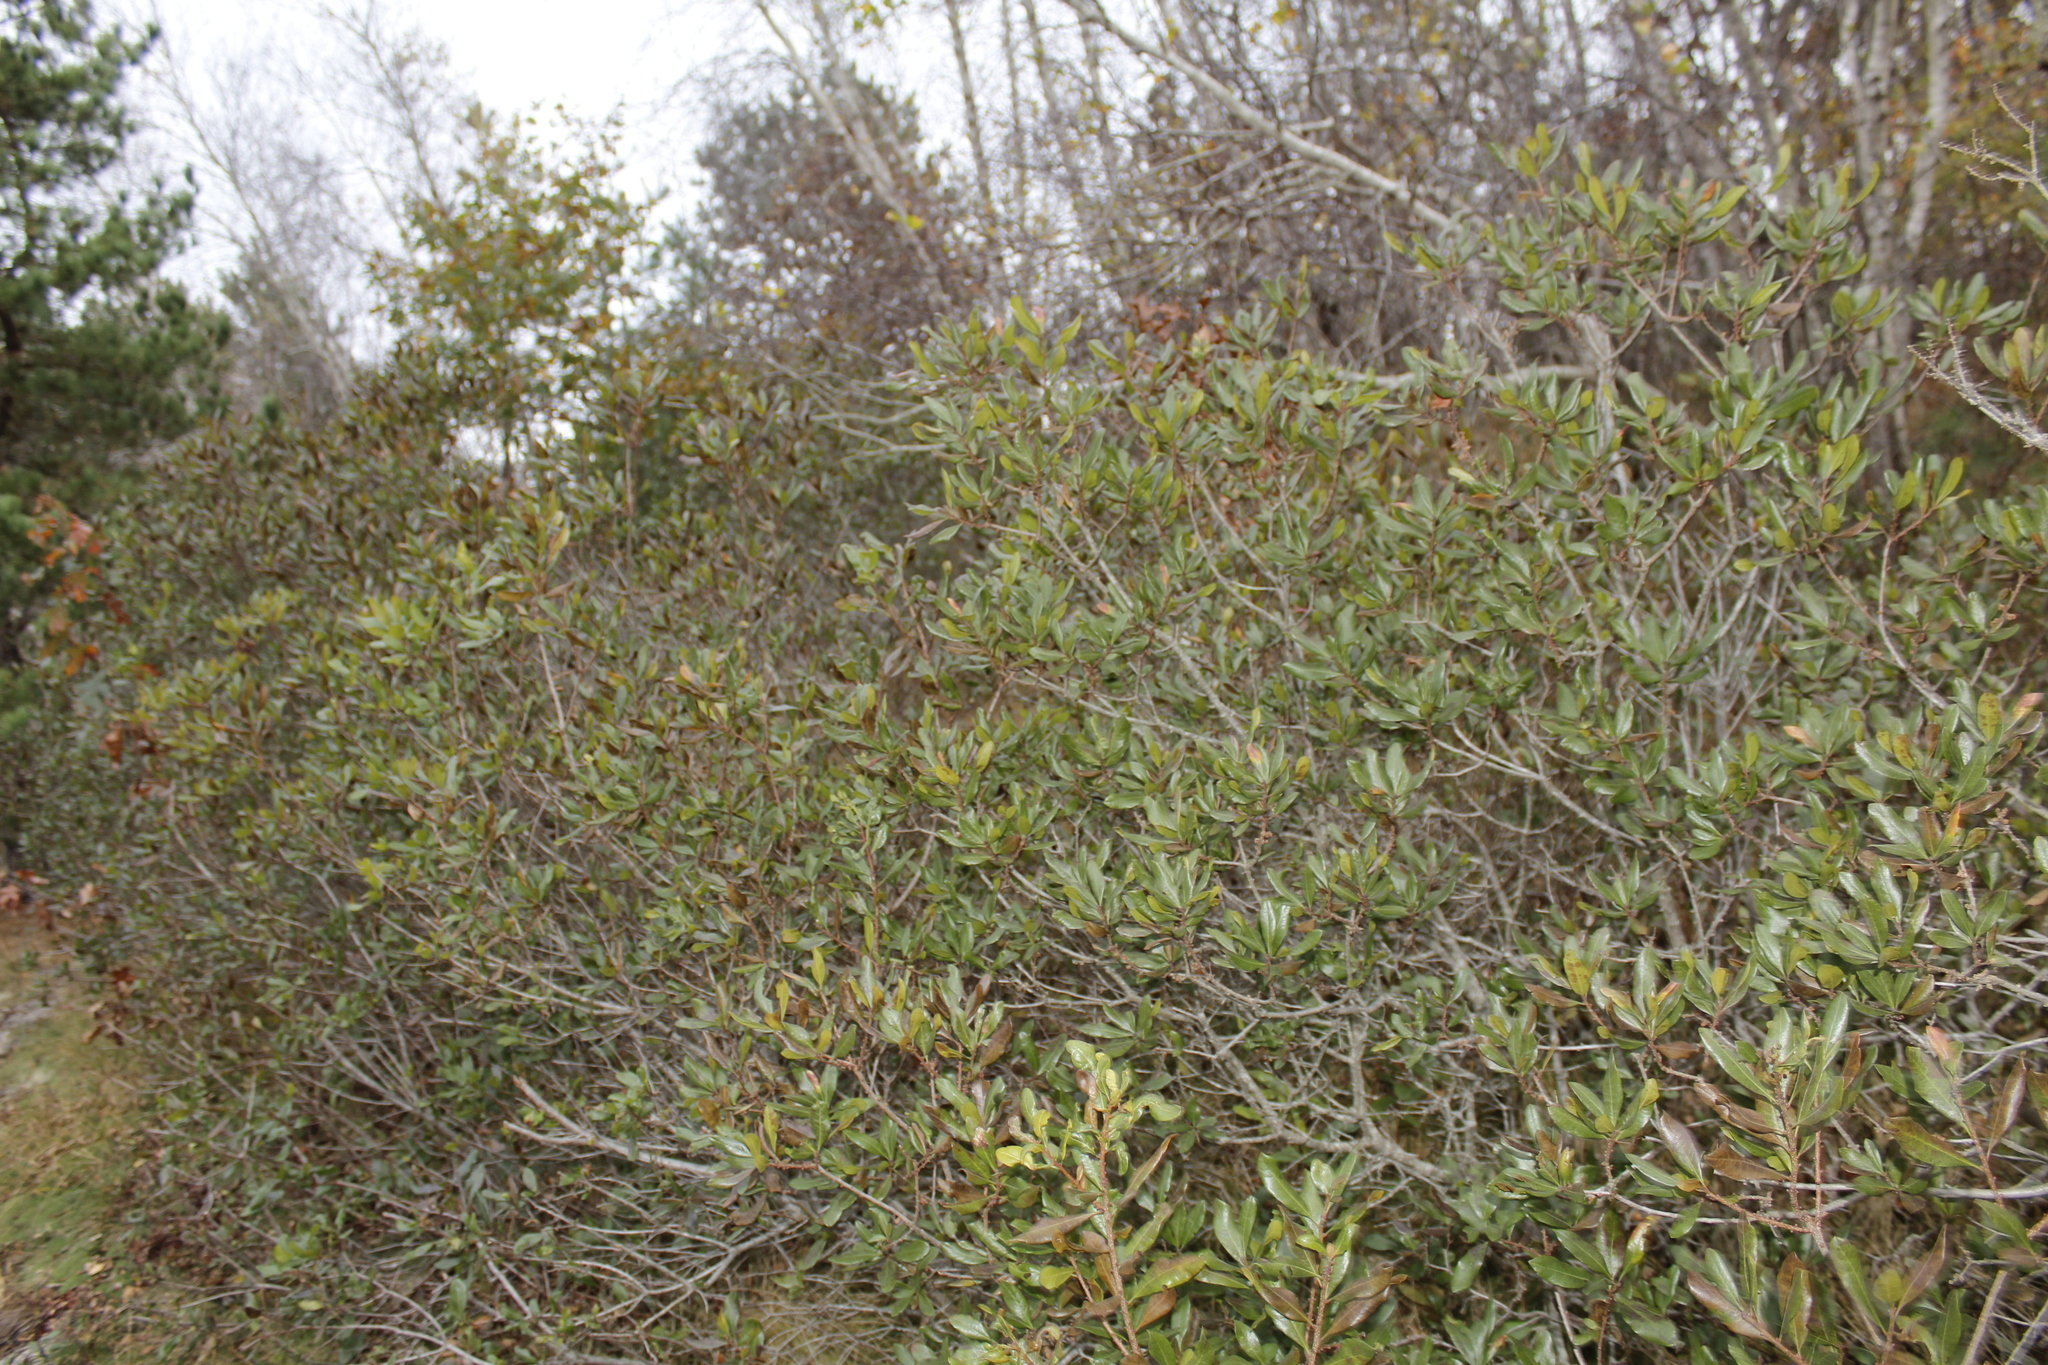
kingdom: Plantae
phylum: Tracheophyta
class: Magnoliopsida
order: Fagales
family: Myricaceae
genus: Morella
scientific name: Morella pensylvanica
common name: Northern bayberry
